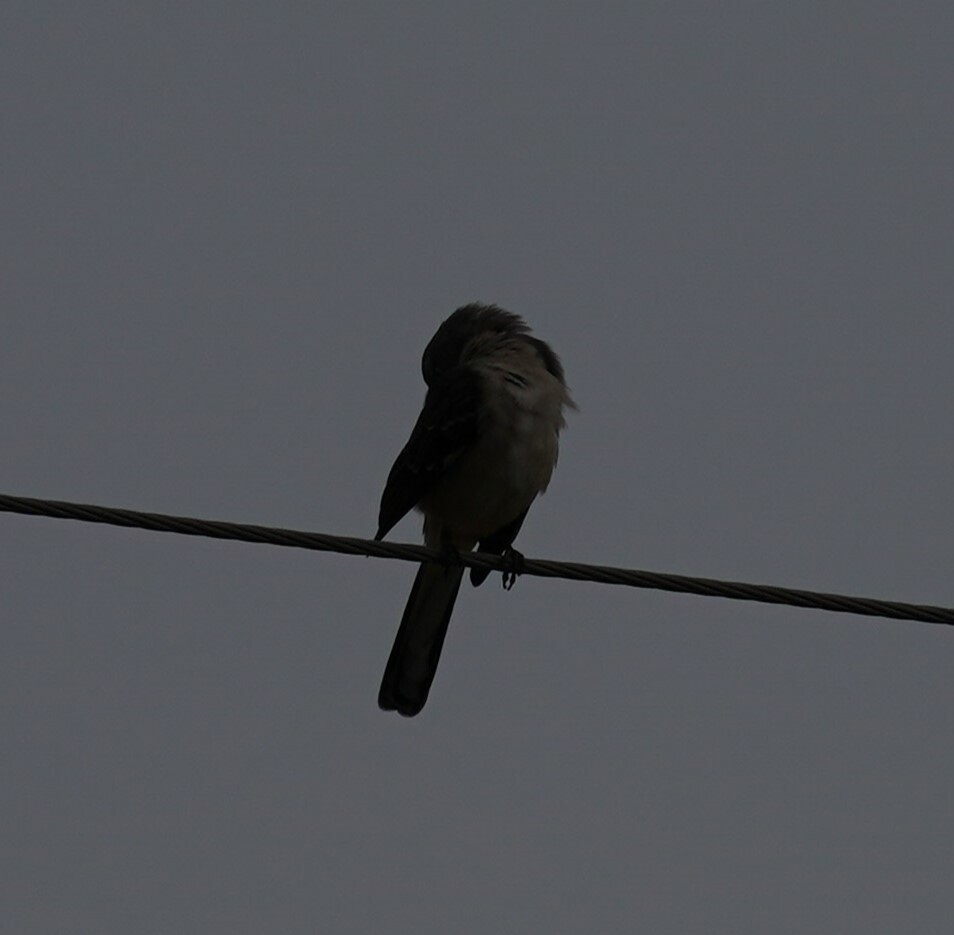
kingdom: Animalia
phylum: Chordata
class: Aves
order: Passeriformes
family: Mimidae
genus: Mimus
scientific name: Mimus polyglottos
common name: Northern mockingbird
